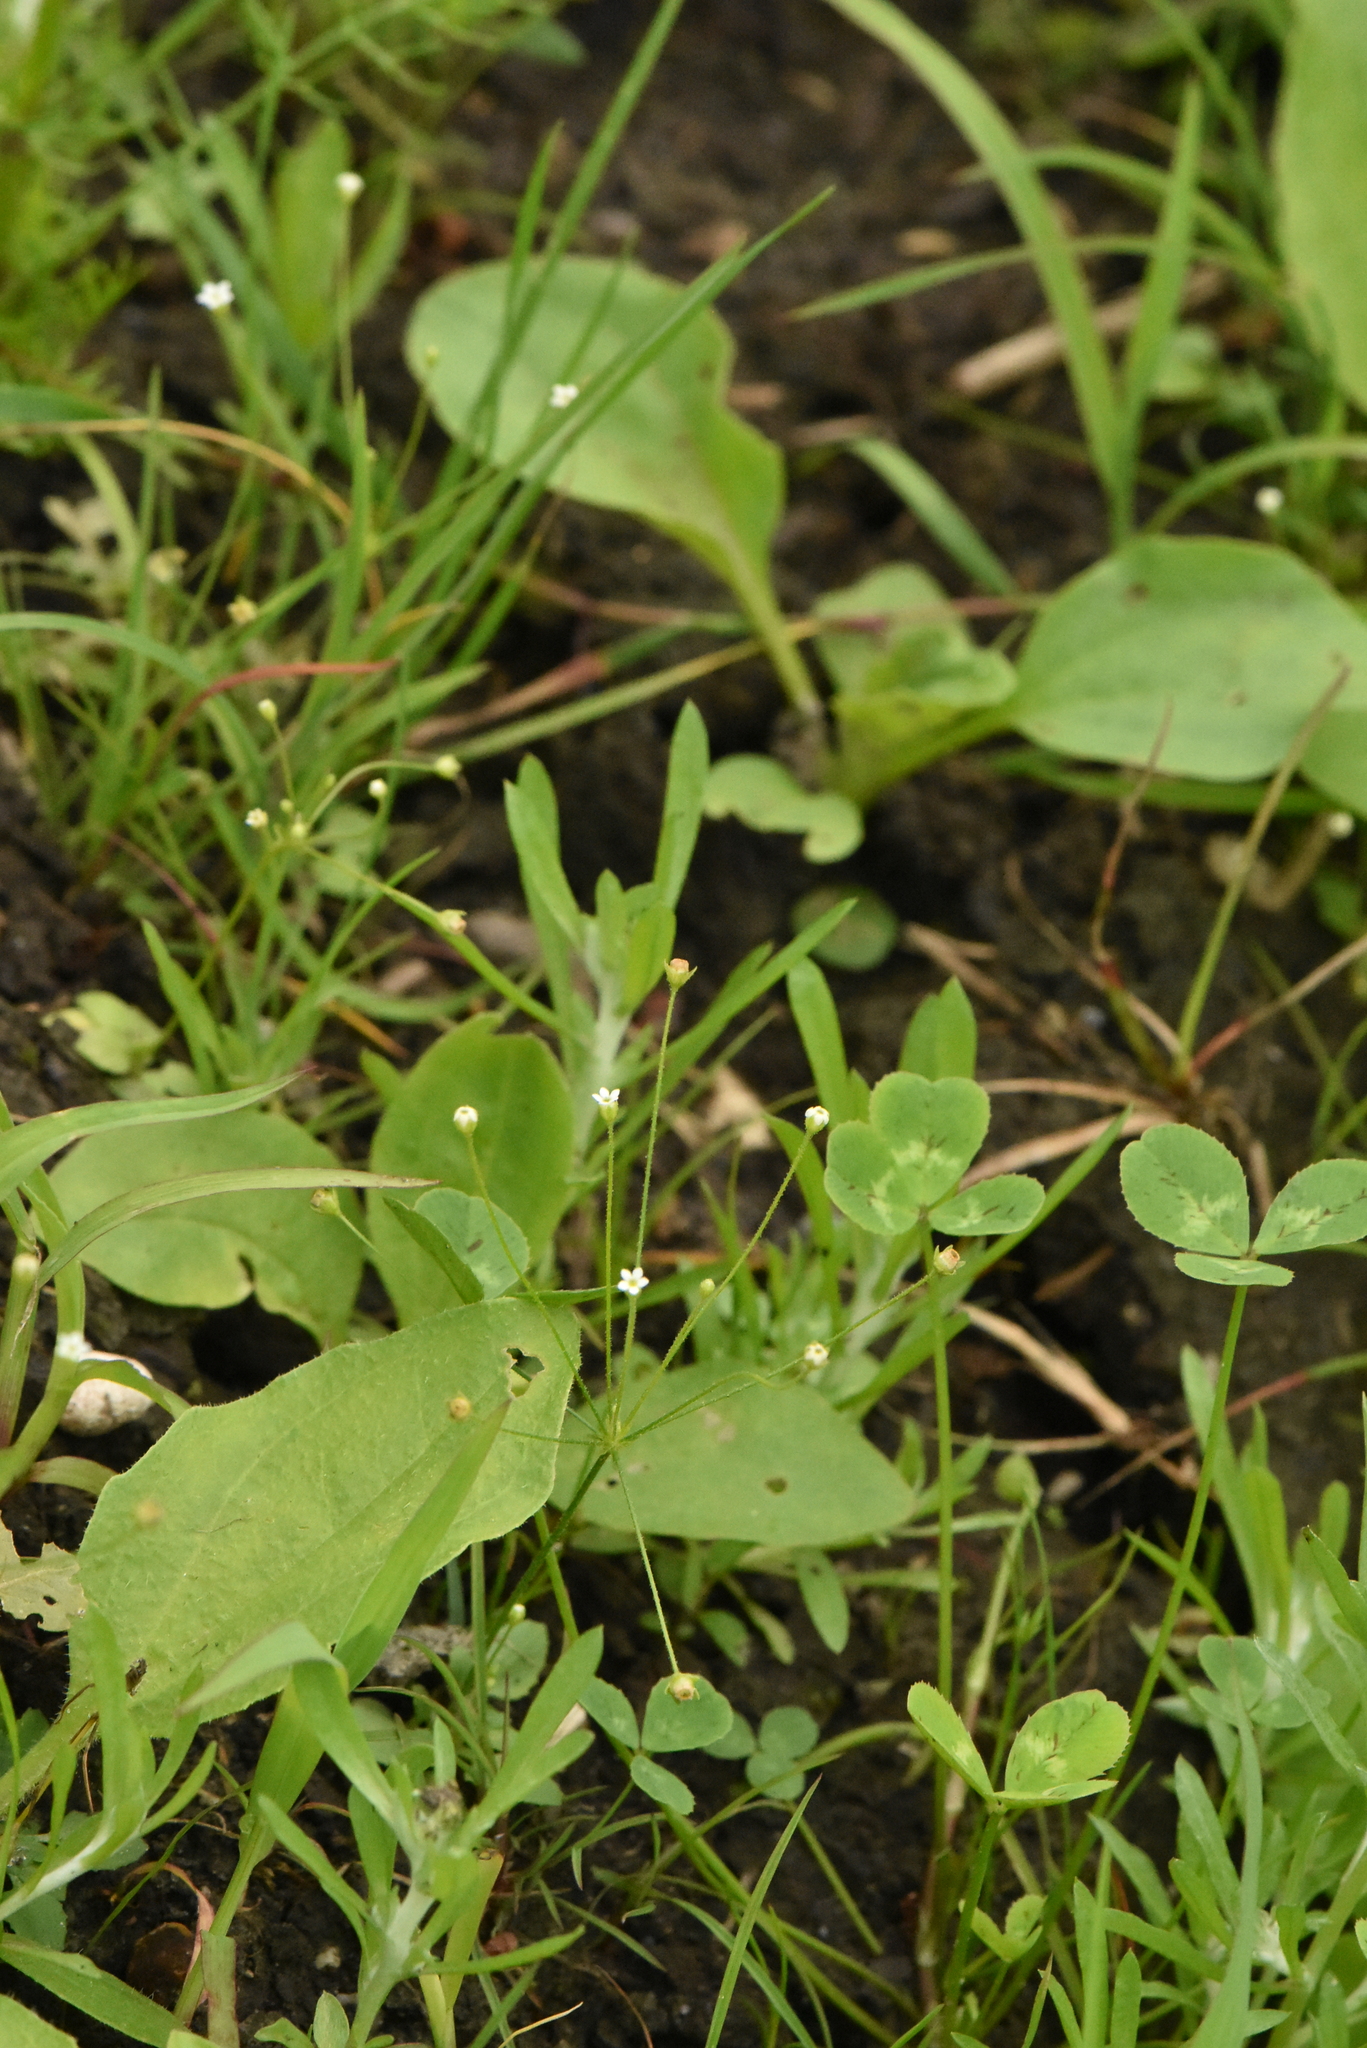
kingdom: Plantae
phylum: Tracheophyta
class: Magnoliopsida
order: Ericales
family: Primulaceae
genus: Androsace
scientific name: Androsace filiformis
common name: Filiform rock jasmine
